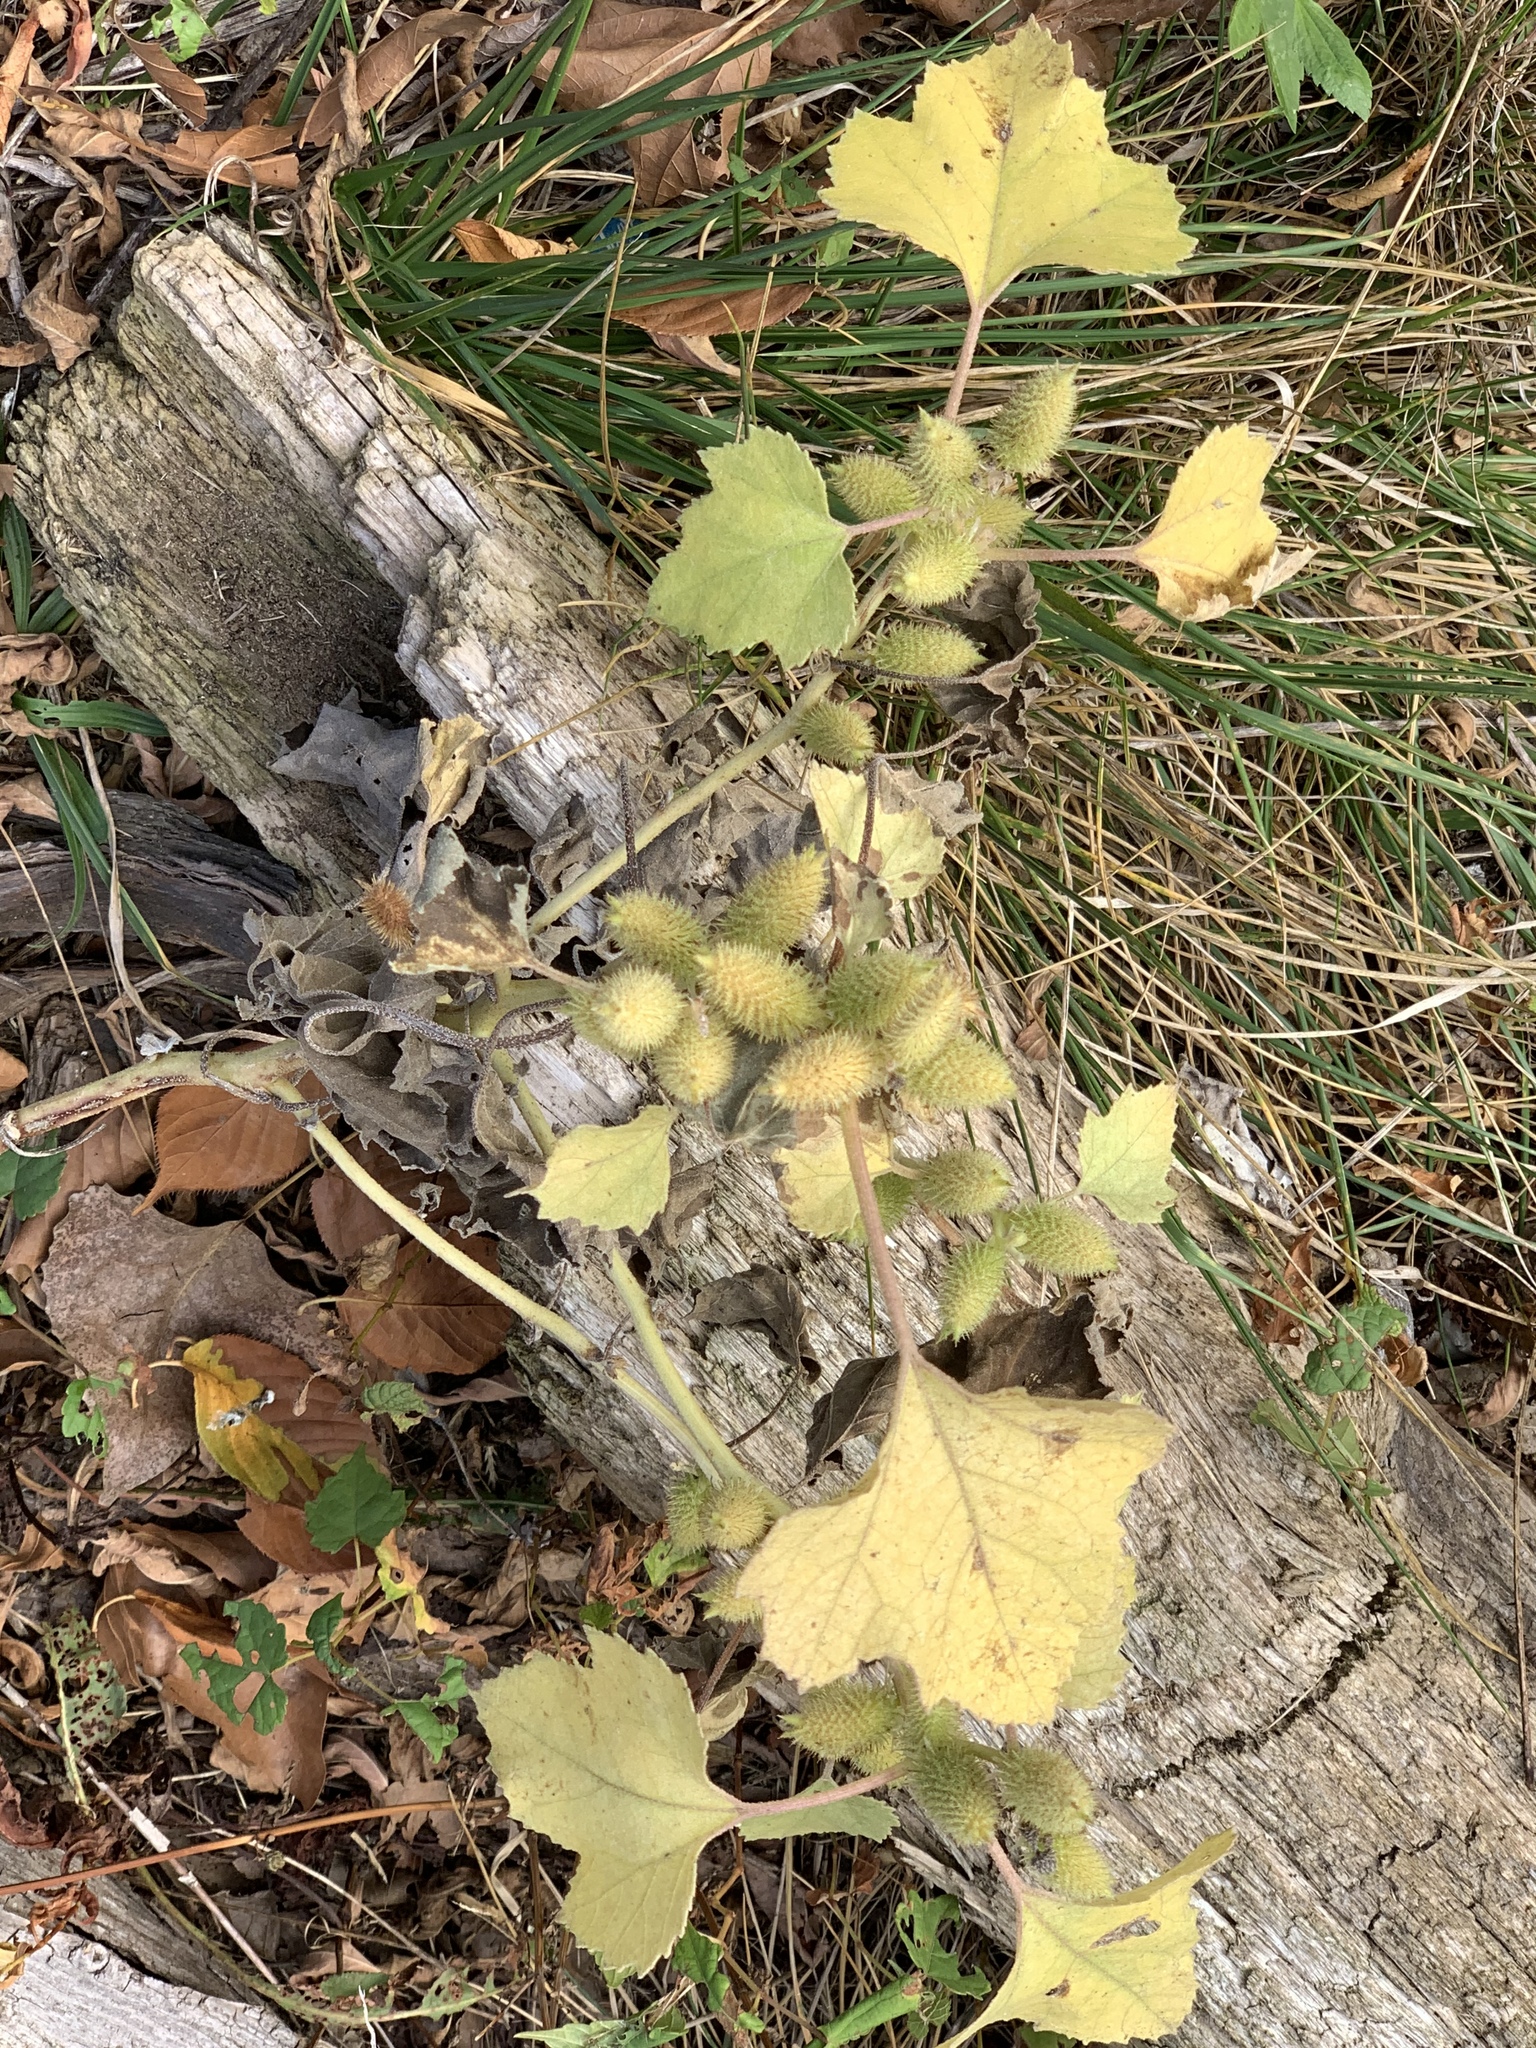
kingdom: Plantae
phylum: Tracheophyta
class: Magnoliopsida
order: Asterales
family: Asteraceae
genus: Xanthium
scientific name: Xanthium strumarium
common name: Rough cocklebur
